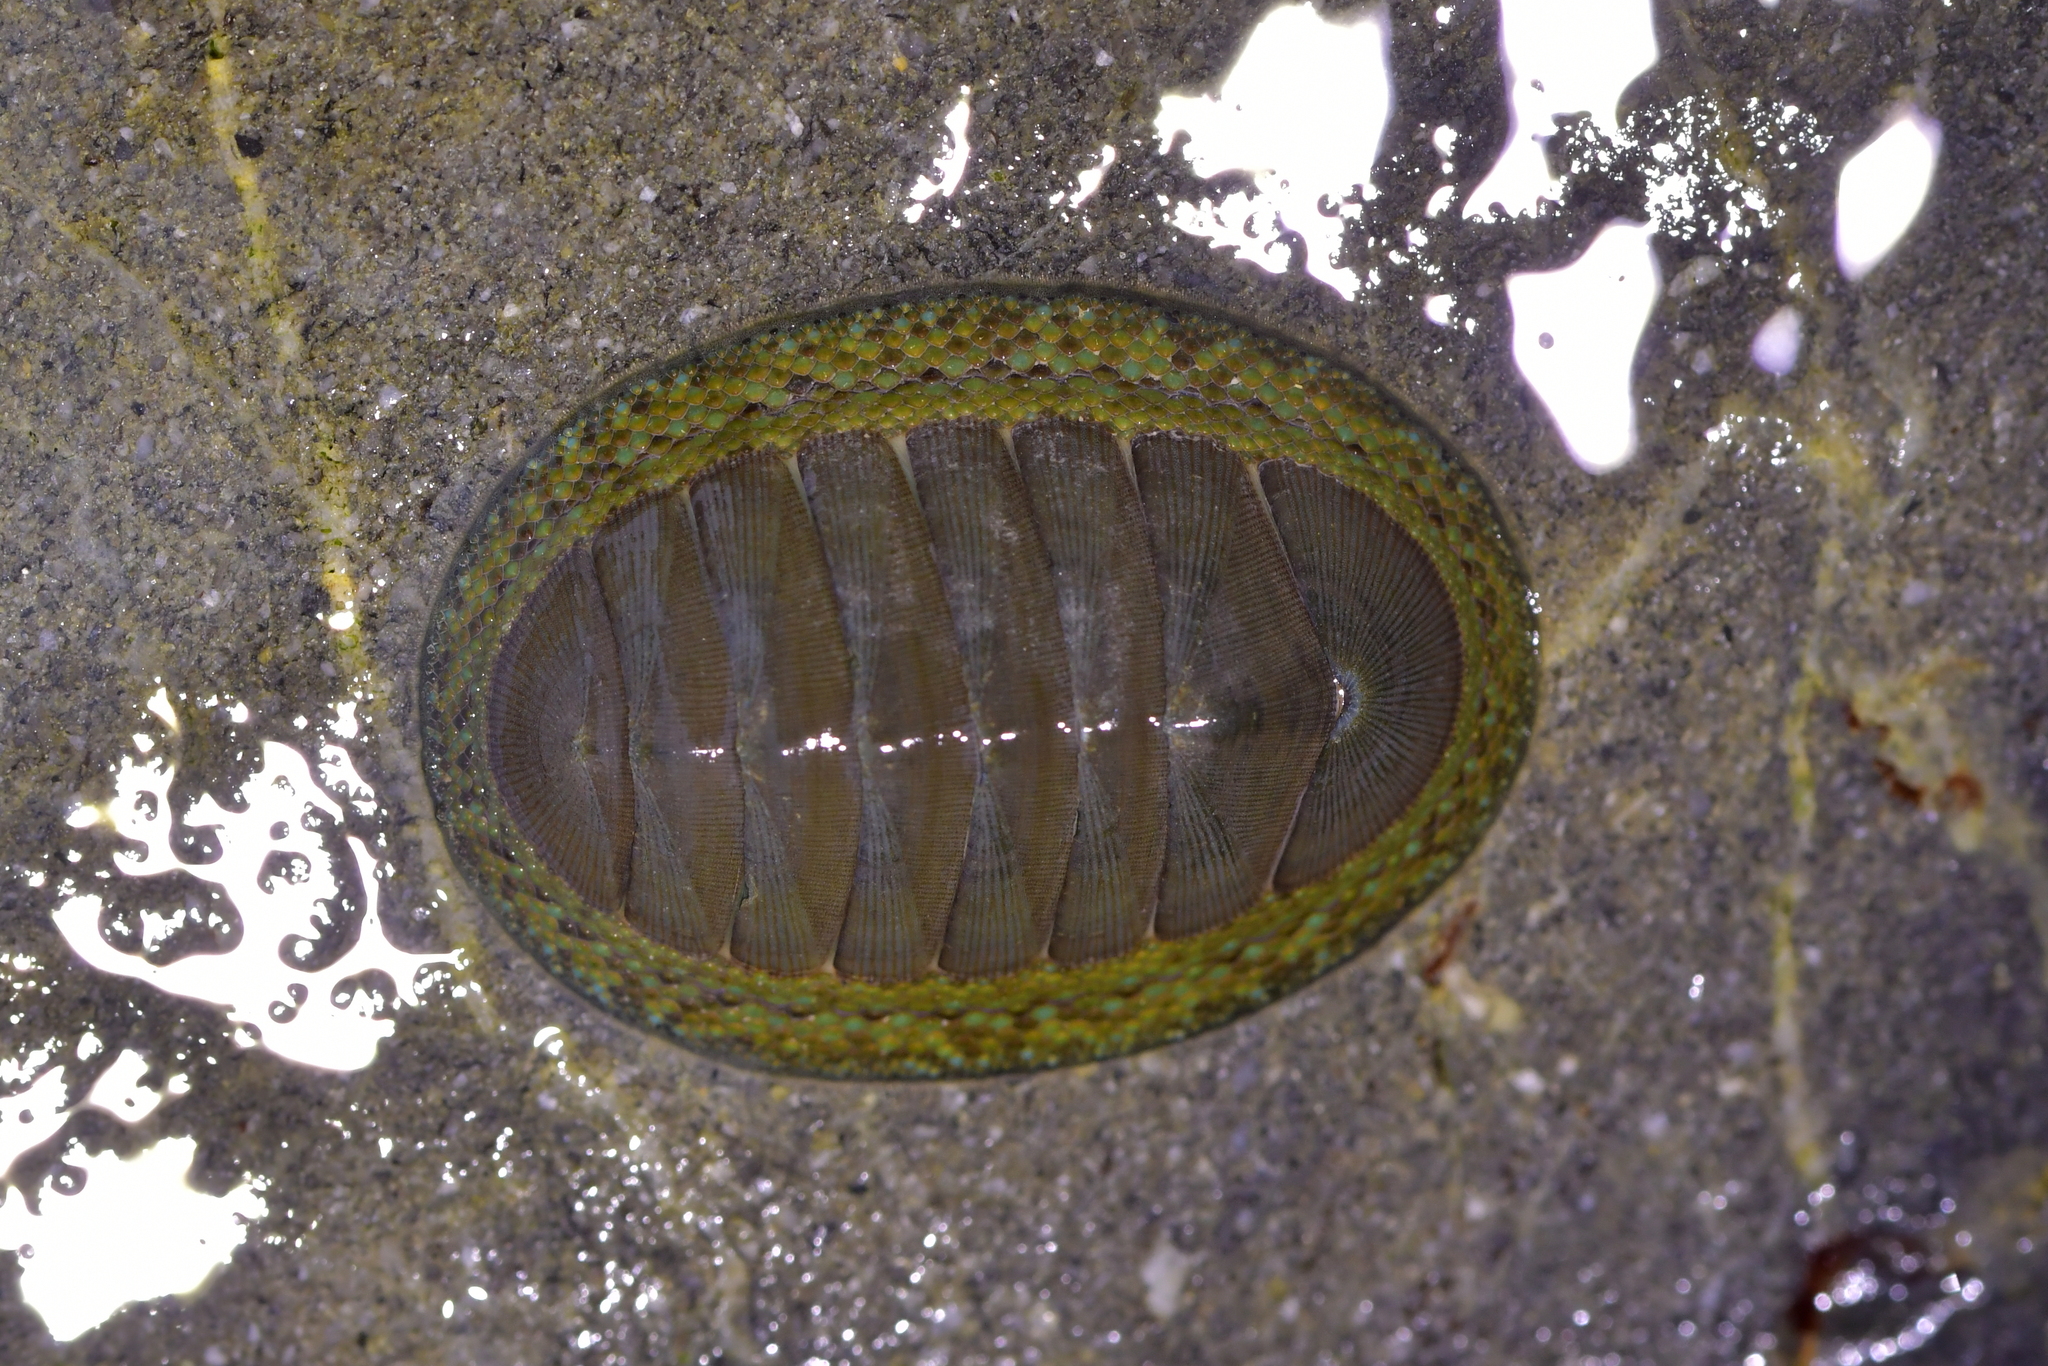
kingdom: Animalia
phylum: Mollusca
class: Polyplacophora
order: Chitonida
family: Chitonidae
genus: Chiton
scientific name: Chiton glaucus
